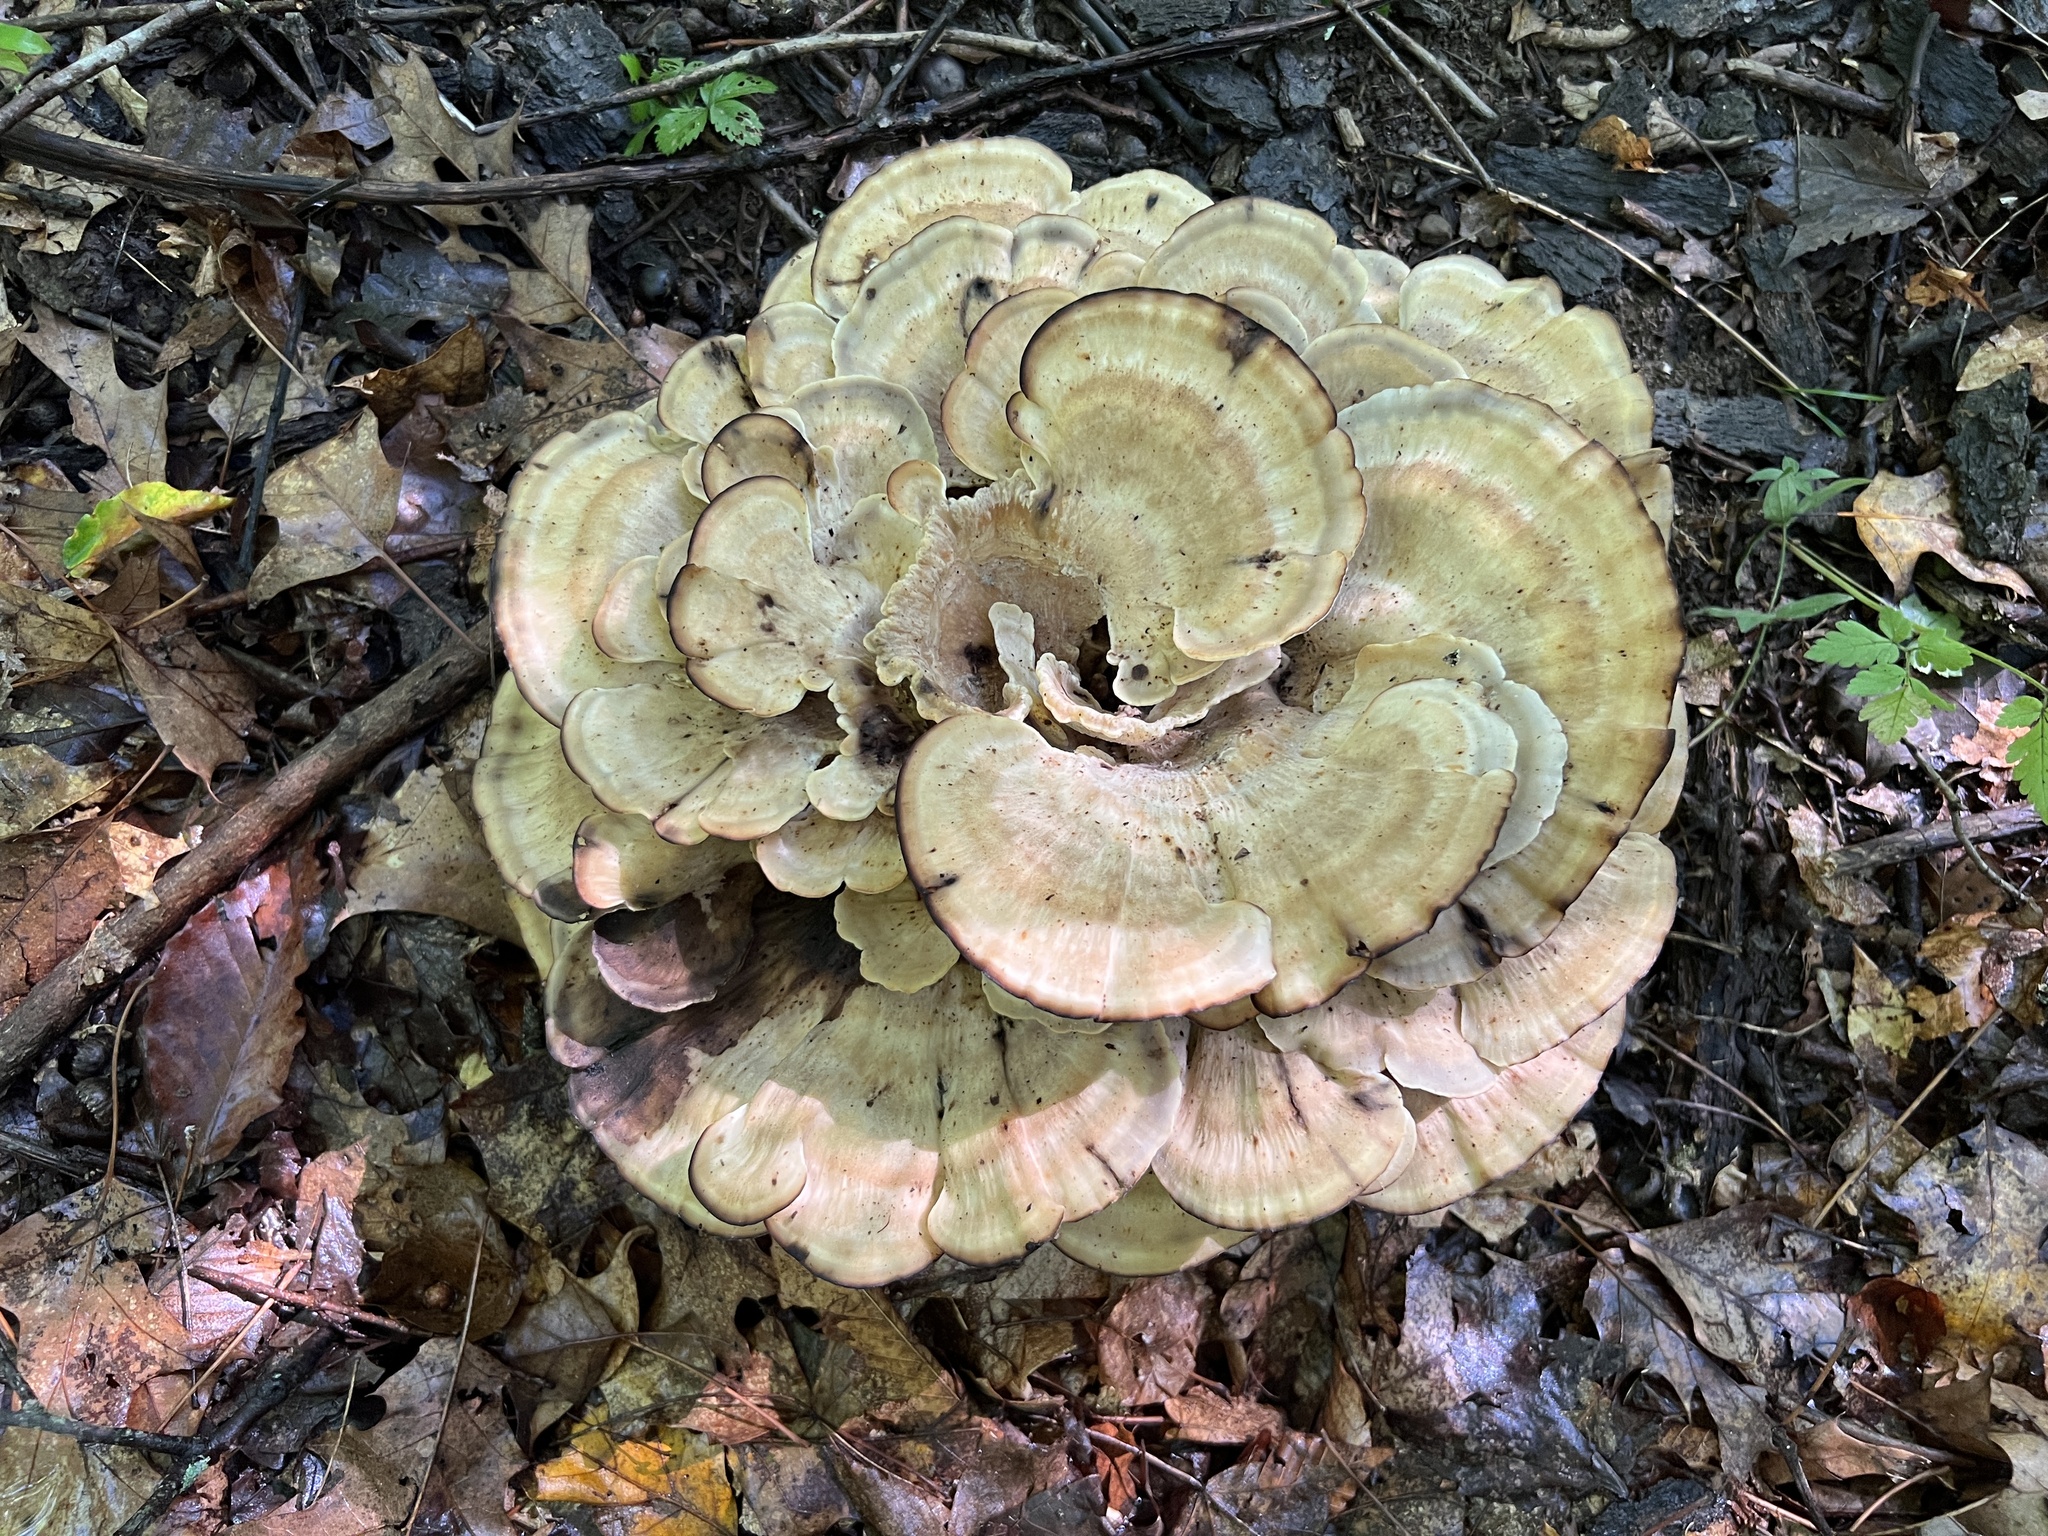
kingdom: Fungi
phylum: Basidiomycota
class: Agaricomycetes
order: Polyporales
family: Meripilaceae
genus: Meripilus
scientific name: Meripilus sumstinei
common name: Black-staining polypore
